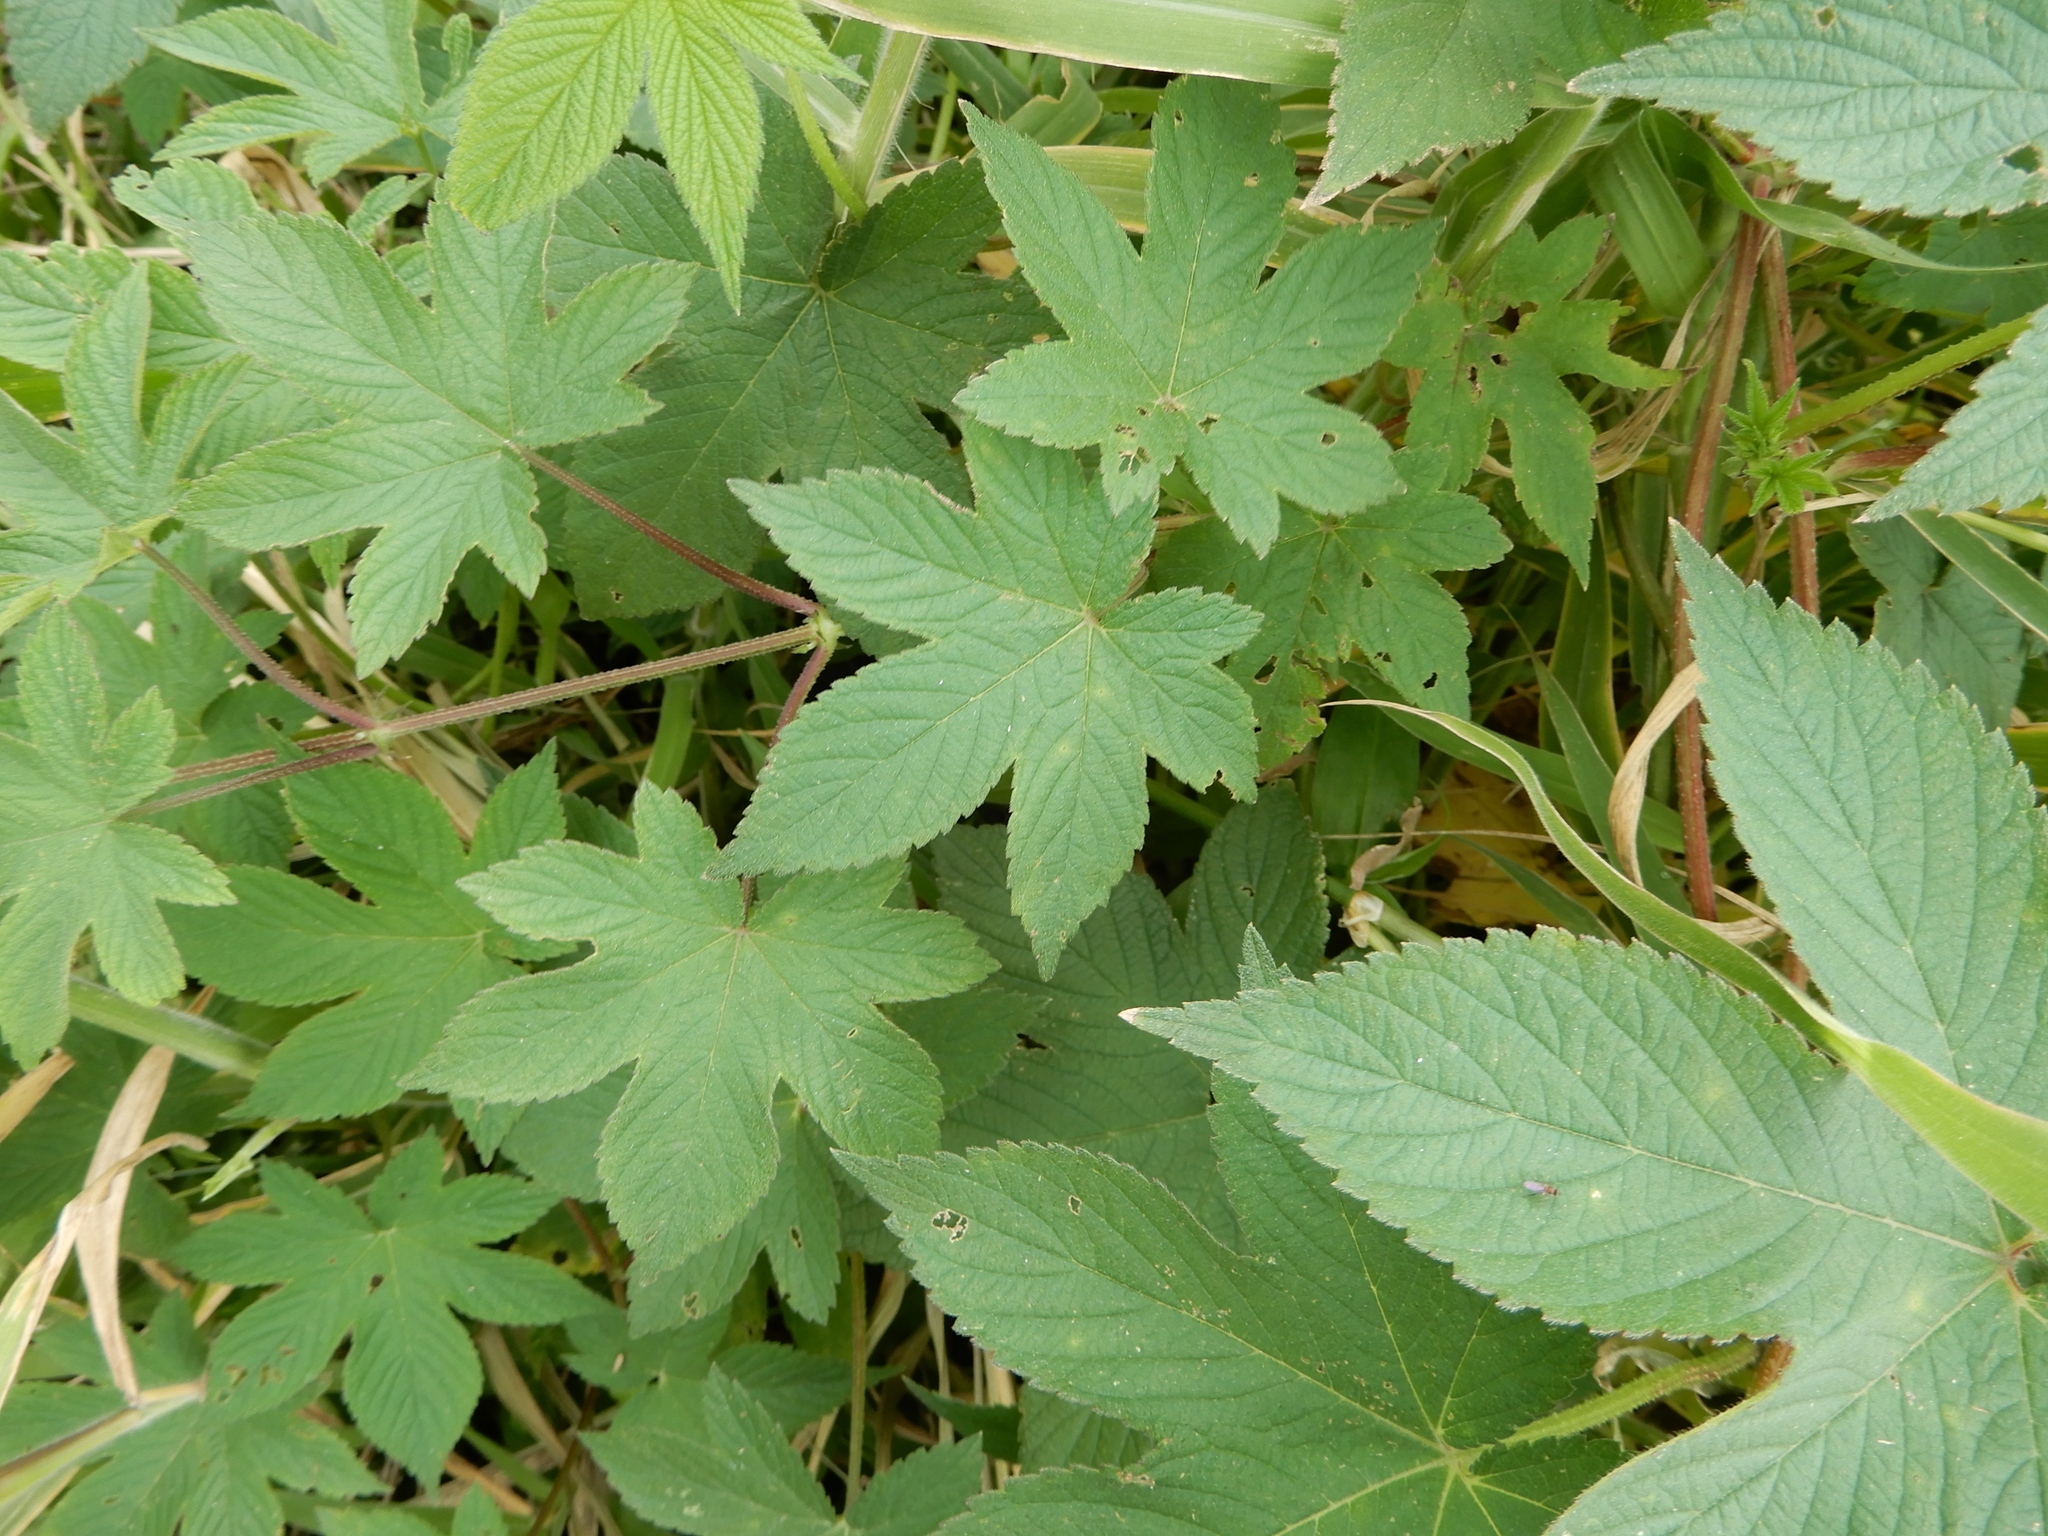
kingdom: Plantae
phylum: Tracheophyta
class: Magnoliopsida
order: Rosales
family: Cannabaceae
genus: Humulus
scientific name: Humulus scandens
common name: Japanese hop
